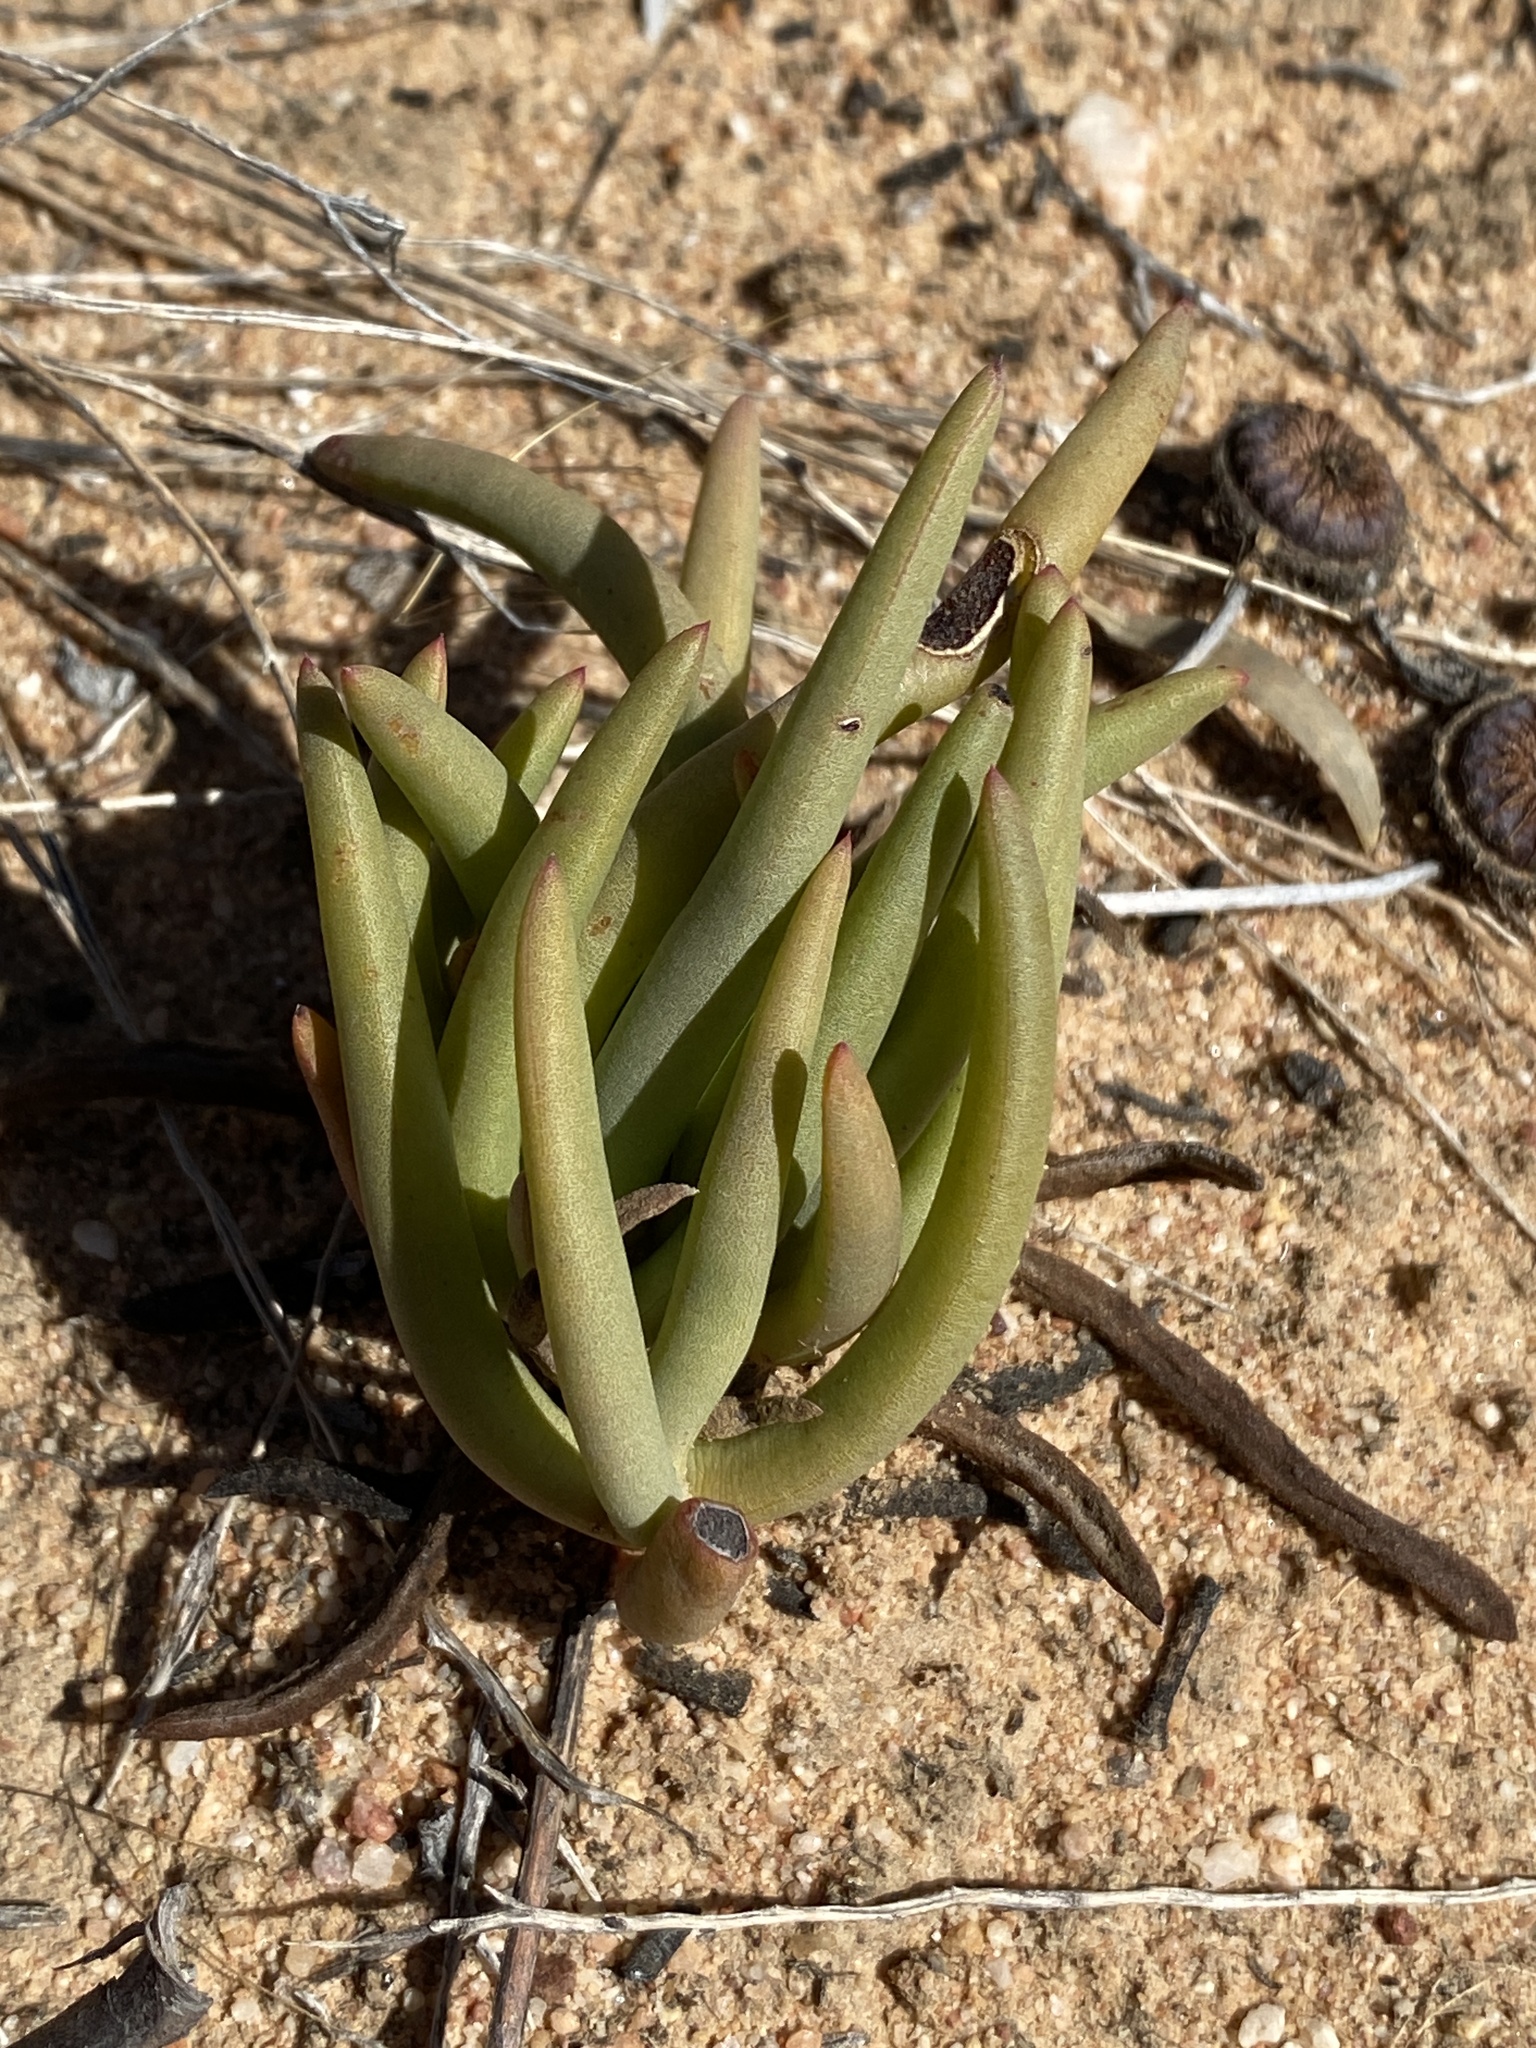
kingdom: Plantae
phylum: Tracheophyta
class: Magnoliopsida
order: Caryophyllales
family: Aizoaceae
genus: Cephalophyllum
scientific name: Cephalophyllum tricolorum
